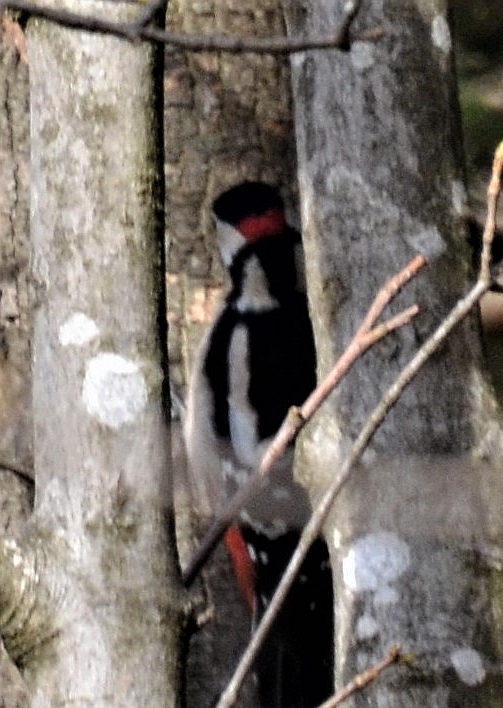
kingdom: Animalia
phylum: Chordata
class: Aves
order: Piciformes
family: Picidae
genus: Dendrocopos
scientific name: Dendrocopos major
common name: Great spotted woodpecker
